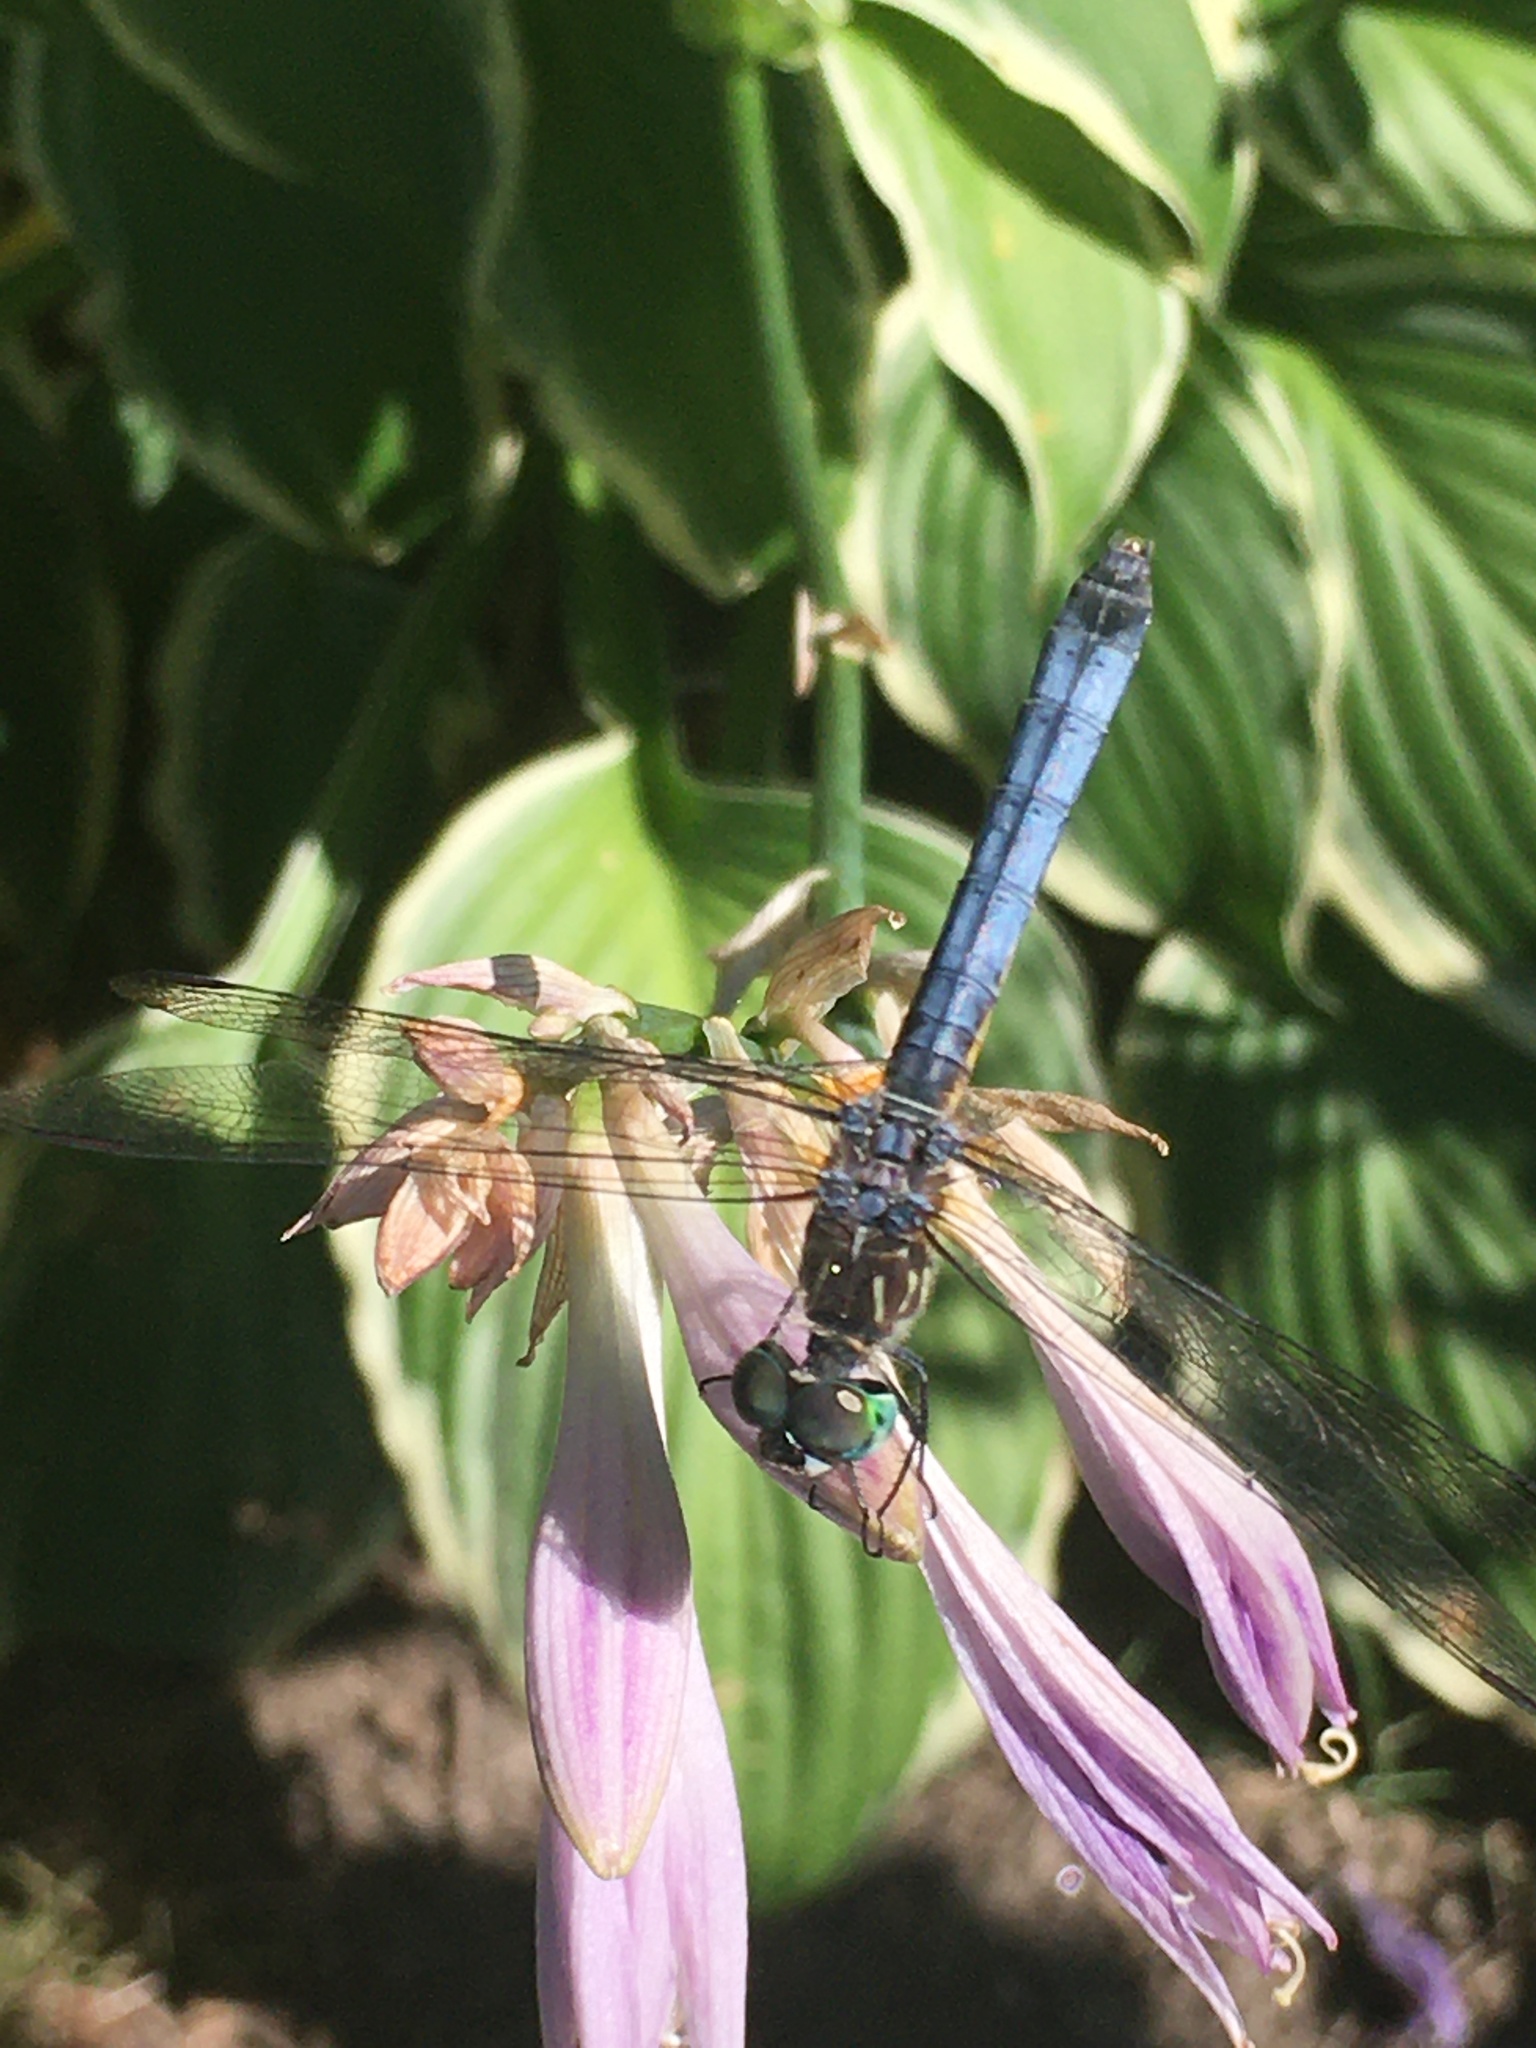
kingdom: Animalia
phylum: Arthropoda
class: Insecta
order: Odonata
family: Libellulidae
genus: Pachydiplax
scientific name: Pachydiplax longipennis
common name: Blue dasher
